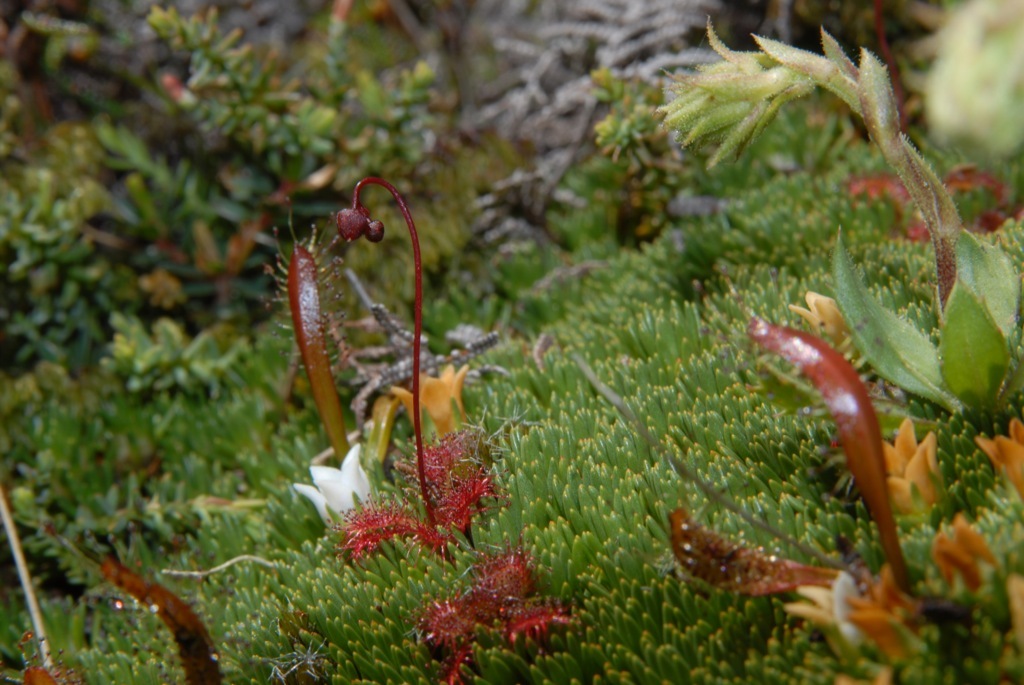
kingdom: Plantae
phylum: Tracheophyta
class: Magnoliopsida
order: Caryophyllales
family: Droseraceae
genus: Drosera
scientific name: Drosera spatulata
